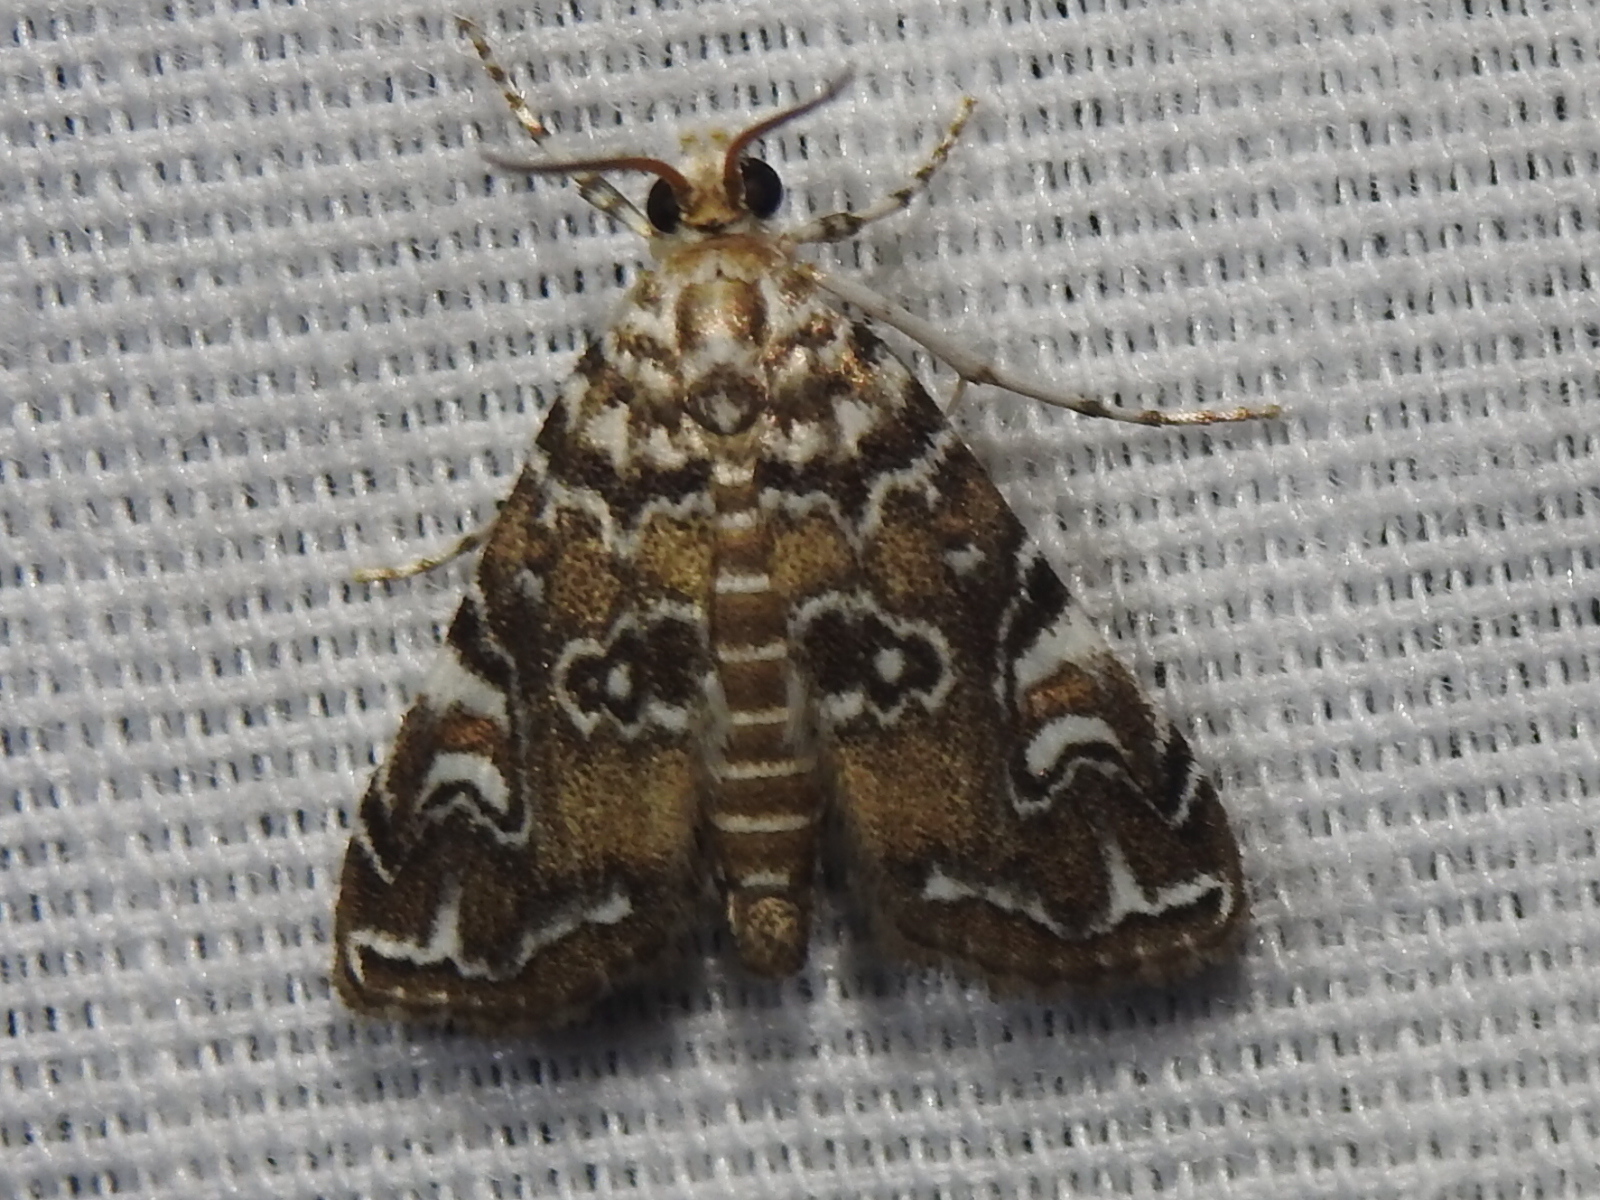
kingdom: Animalia
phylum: Arthropoda
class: Insecta
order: Lepidoptera
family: Crambidae
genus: Elophila
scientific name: Elophila gyralis
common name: Waterlily borer moth
